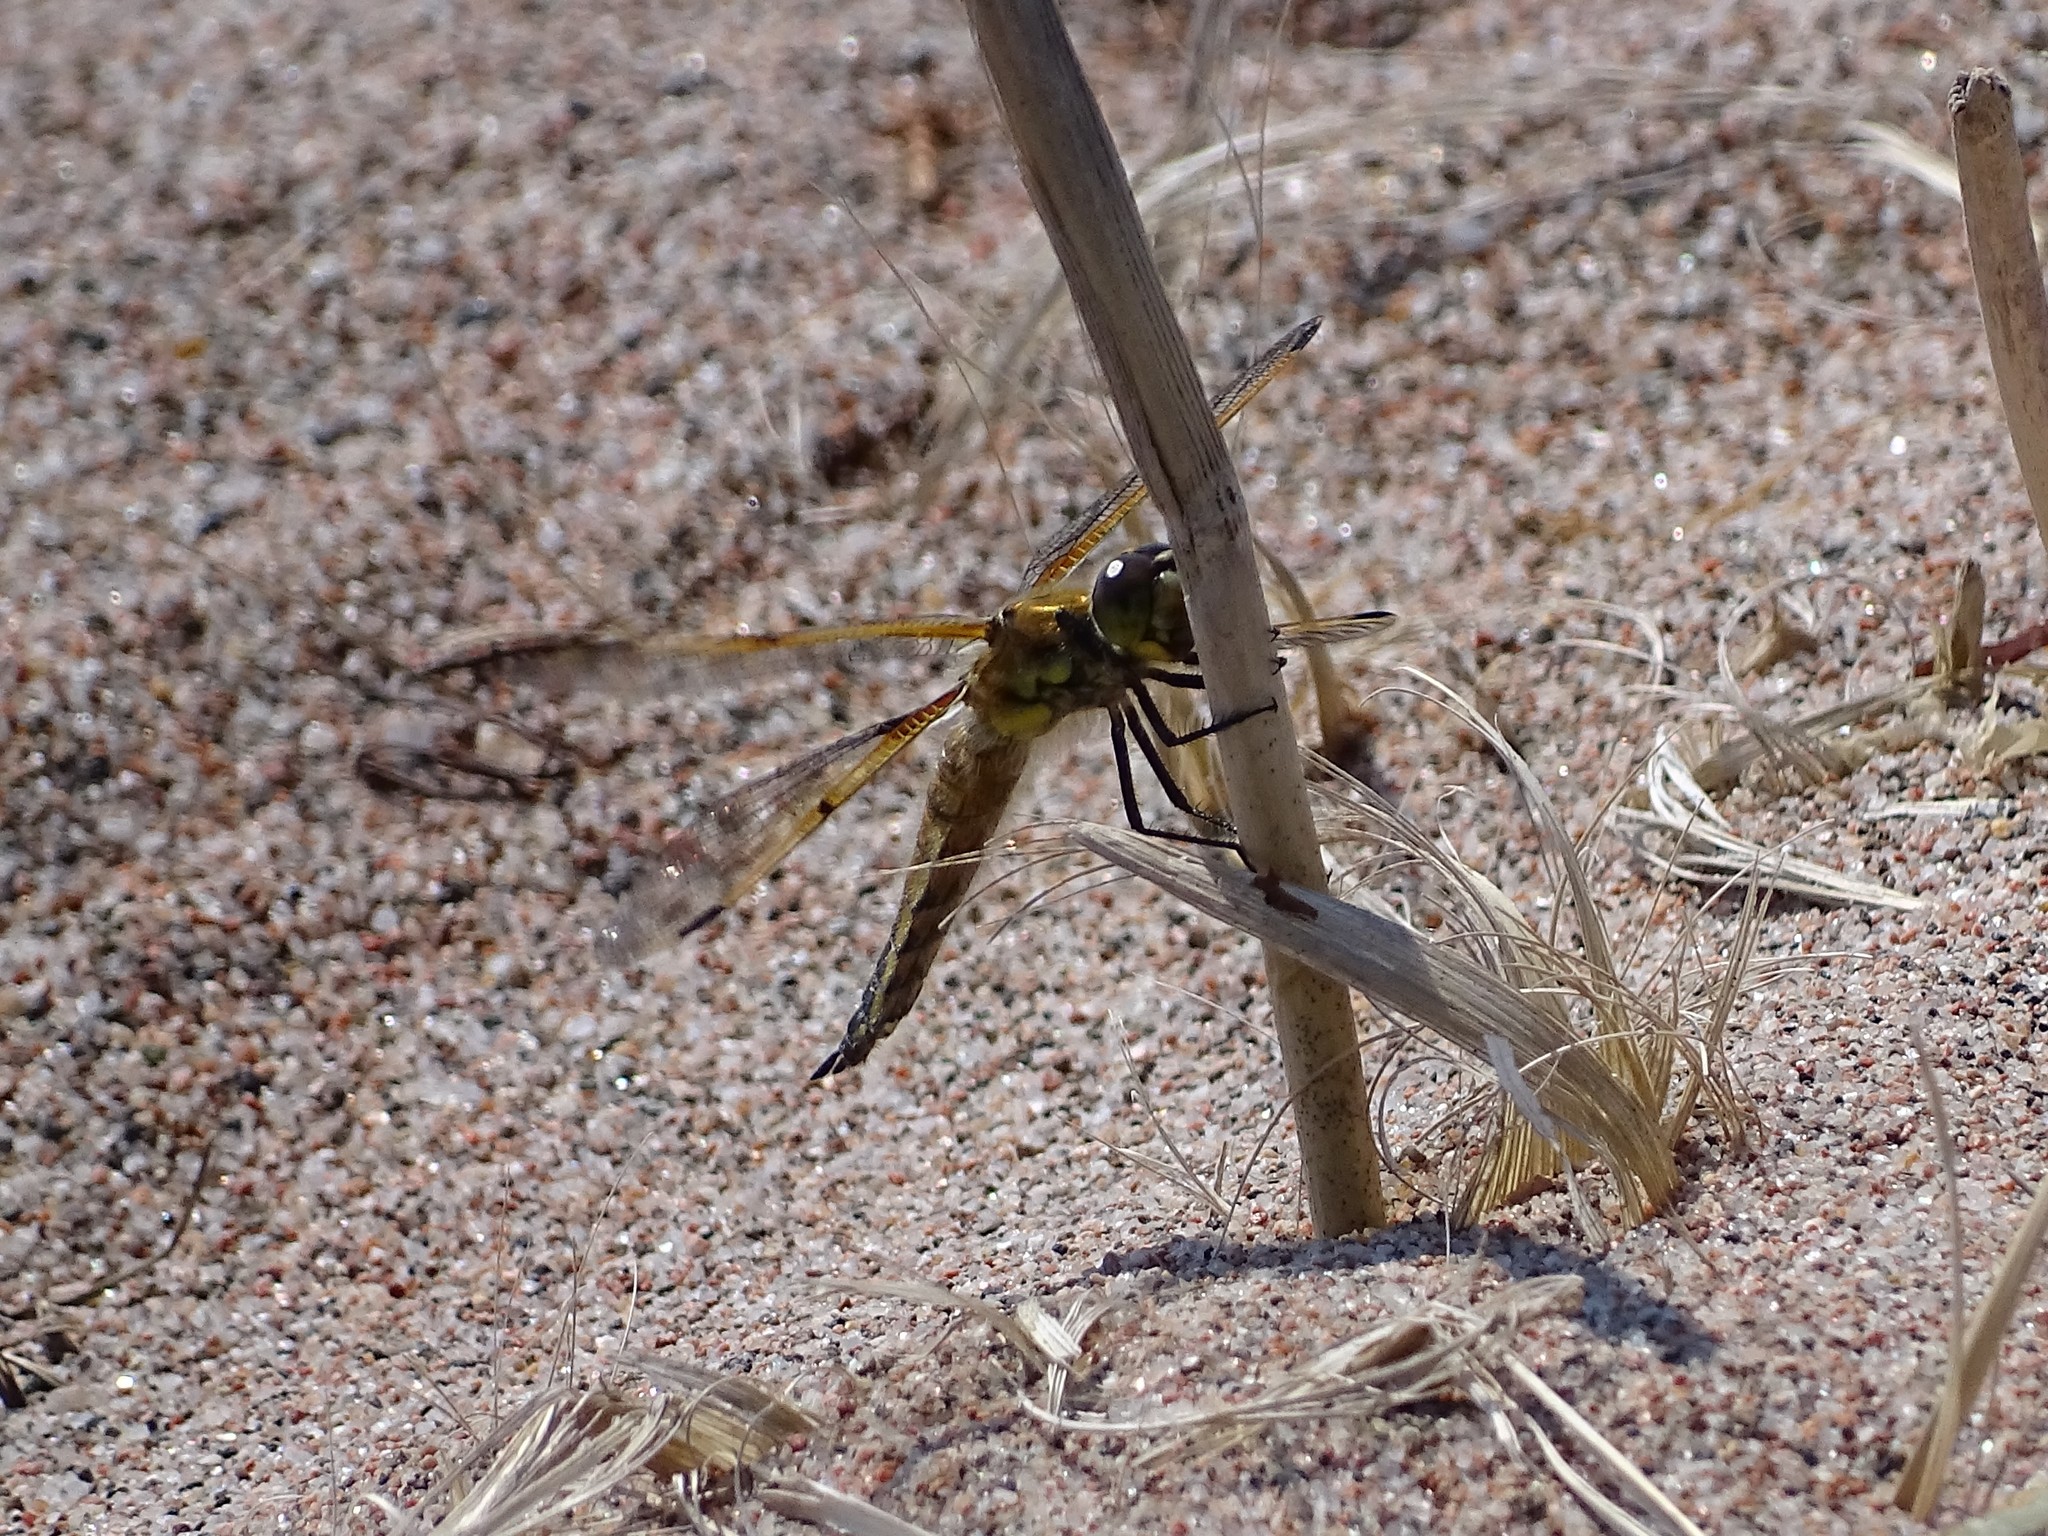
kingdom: Animalia
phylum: Arthropoda
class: Insecta
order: Odonata
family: Libellulidae
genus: Libellula
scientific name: Libellula quadrimaculata
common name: Four-spotted chaser
